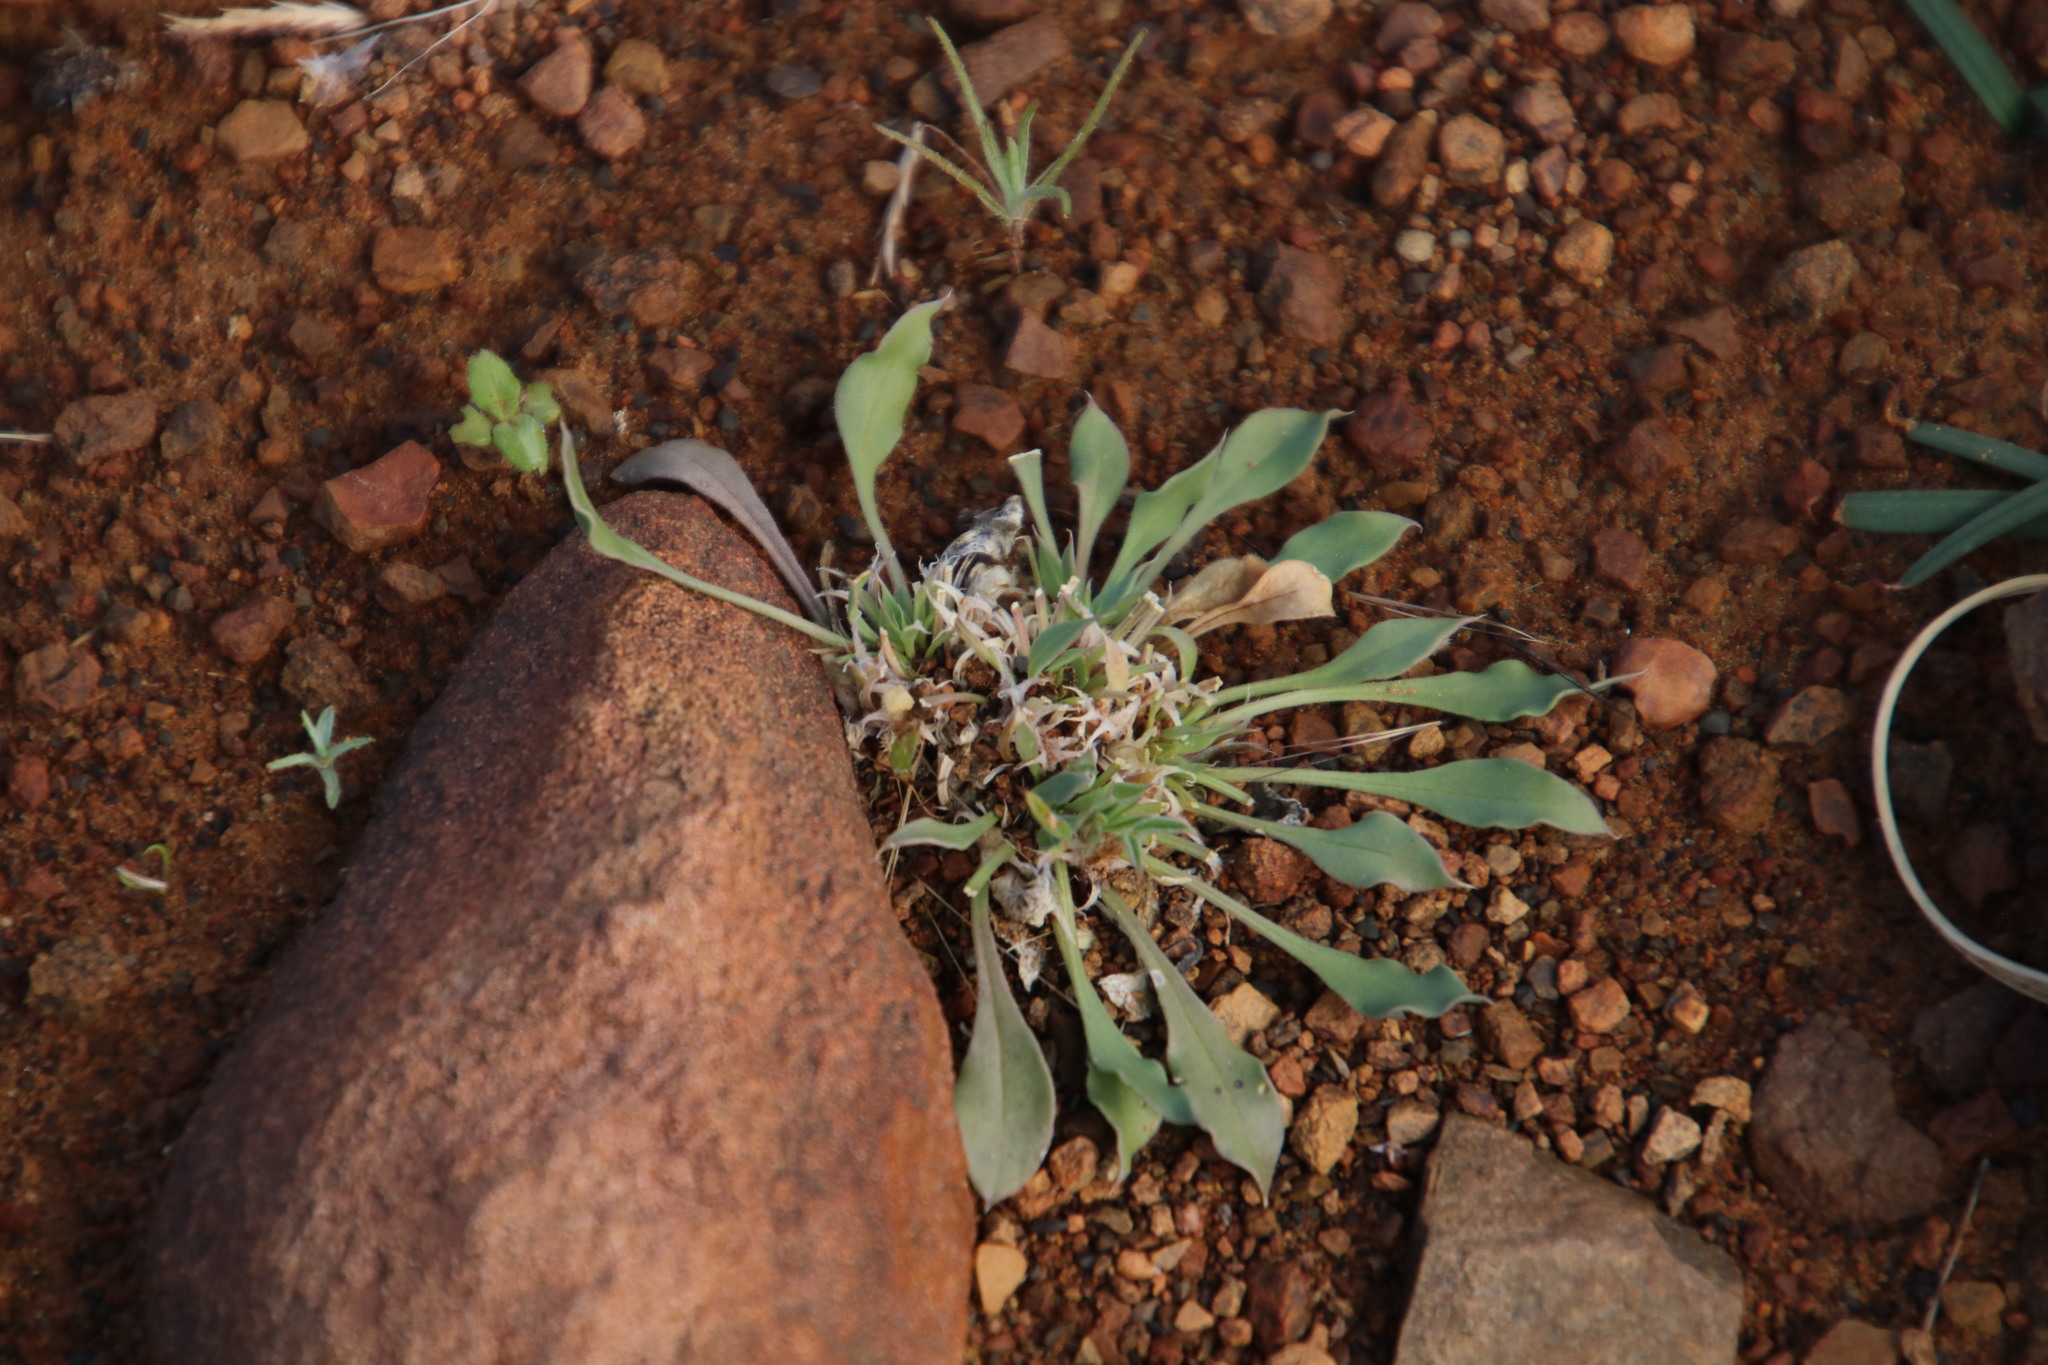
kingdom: Plantae
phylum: Tracheophyta
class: Magnoliopsida
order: Lamiales
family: Scrophulariaceae
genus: Aptosimum
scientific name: Aptosimum indivisum
